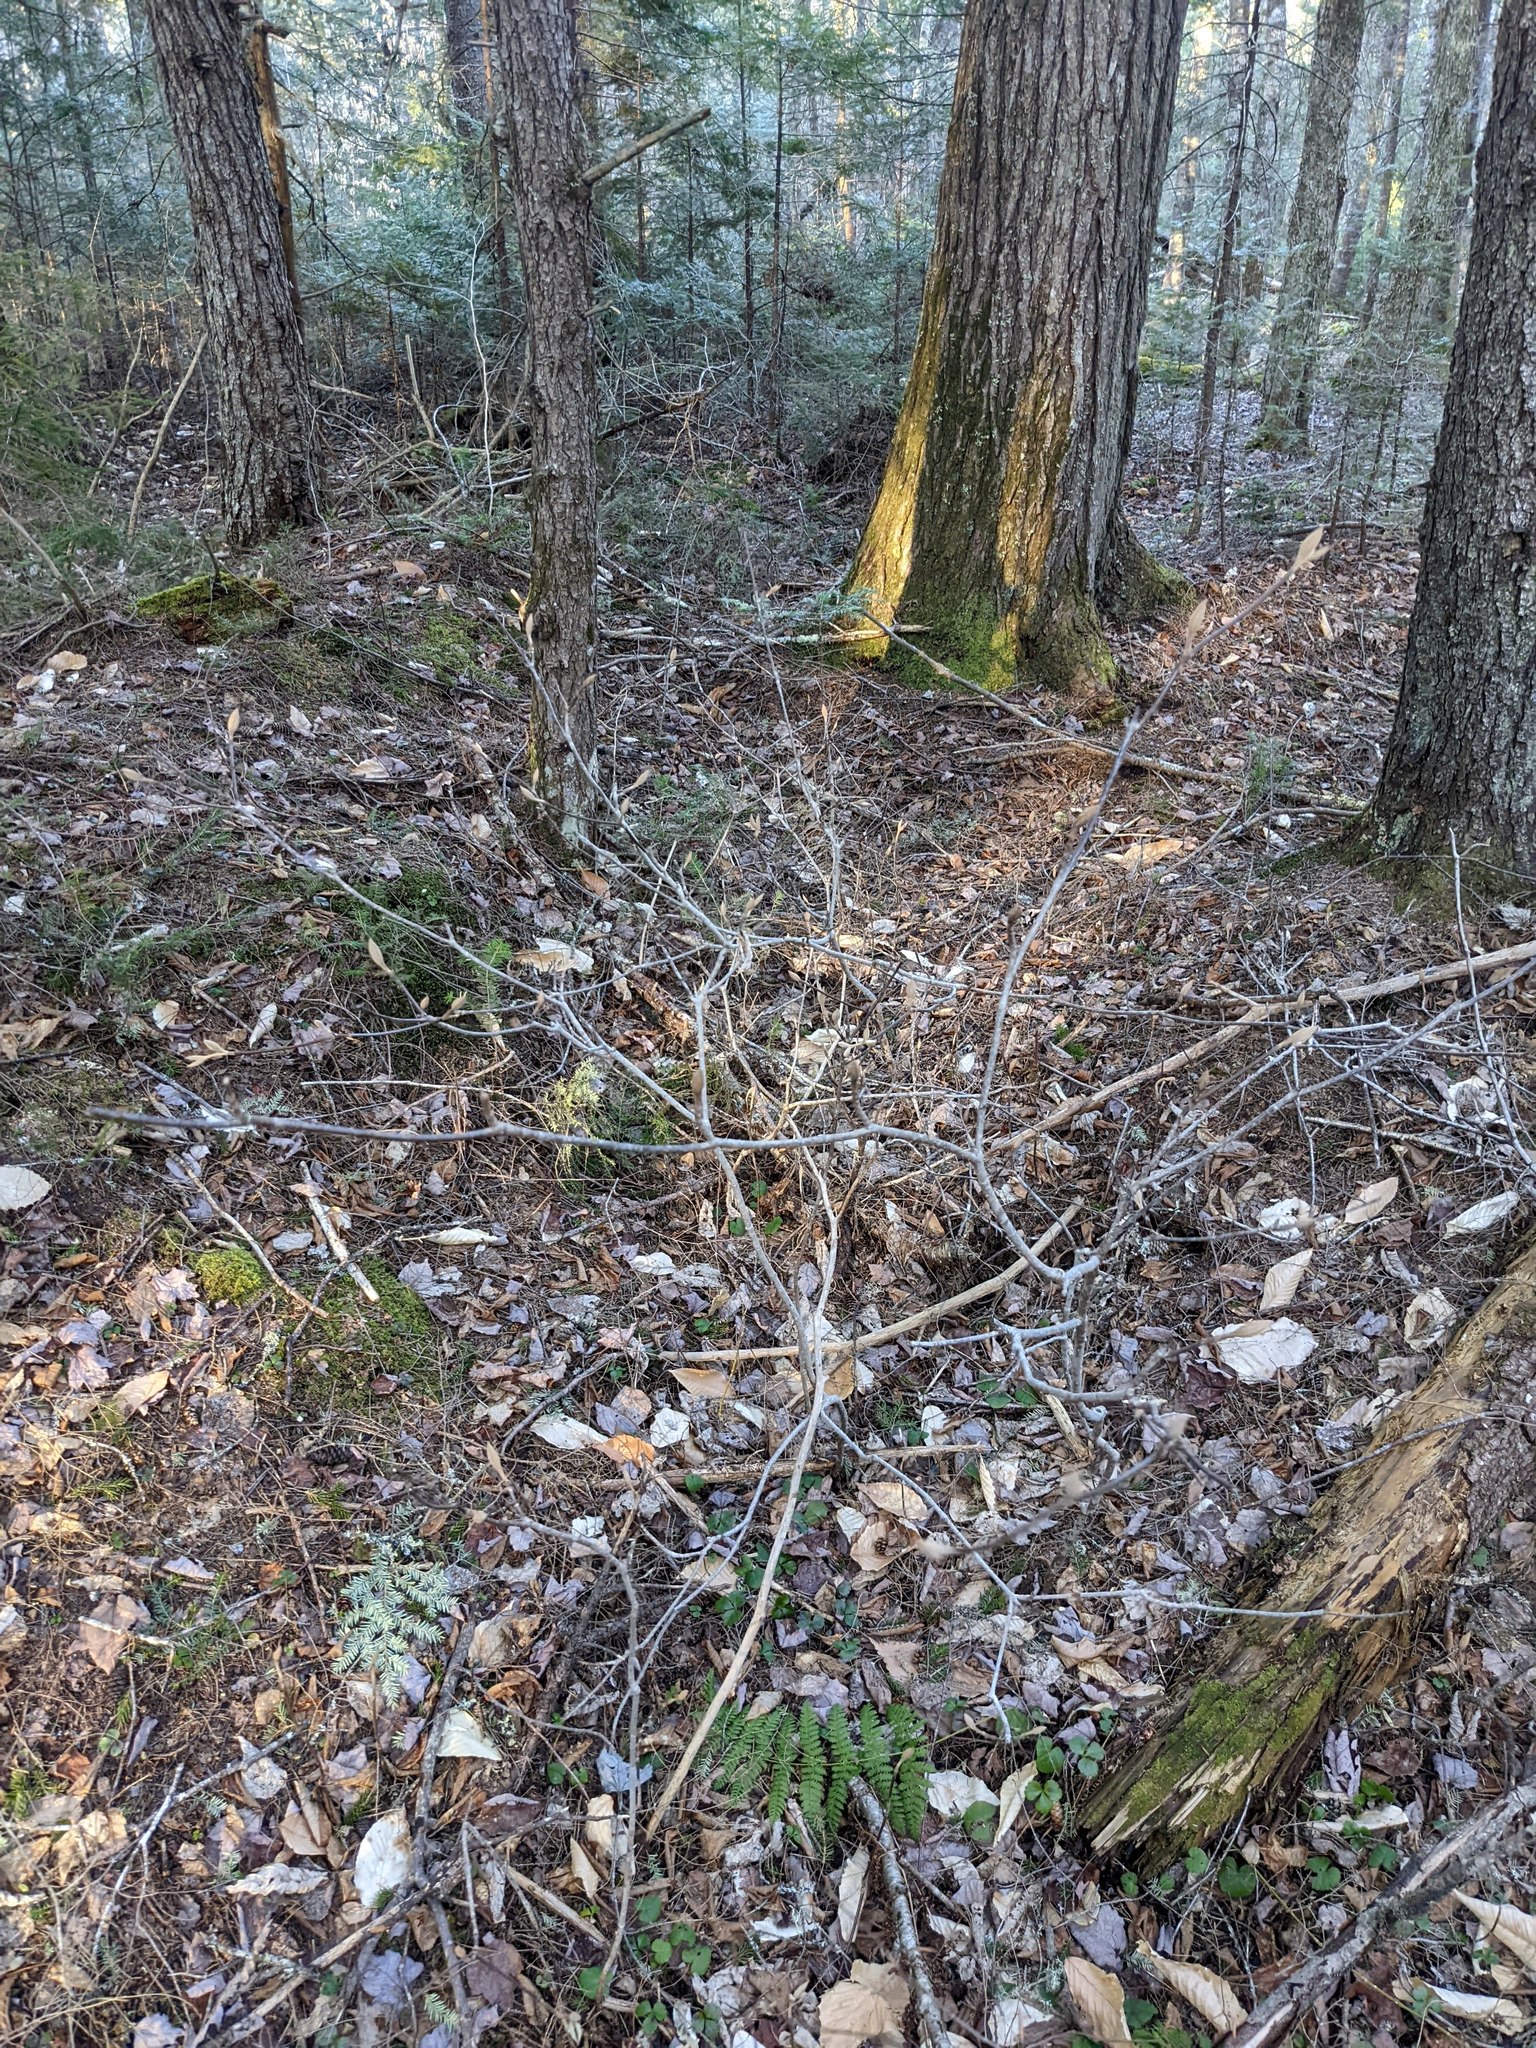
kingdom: Plantae
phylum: Tracheophyta
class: Magnoliopsida
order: Dipsacales
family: Viburnaceae
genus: Viburnum
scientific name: Viburnum lantanoides
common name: Hobblebush
